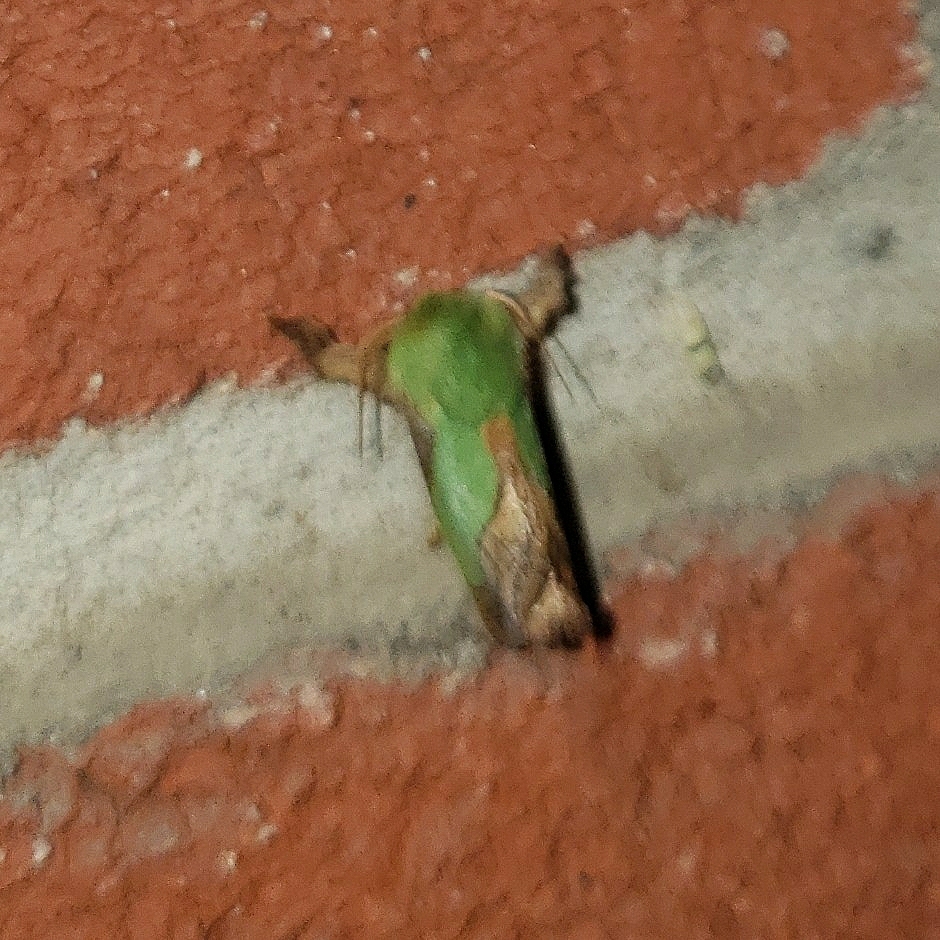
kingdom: Animalia
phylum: Arthropoda
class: Insecta
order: Lepidoptera
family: Limacodidae
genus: Parasa
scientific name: Parasa chloris
